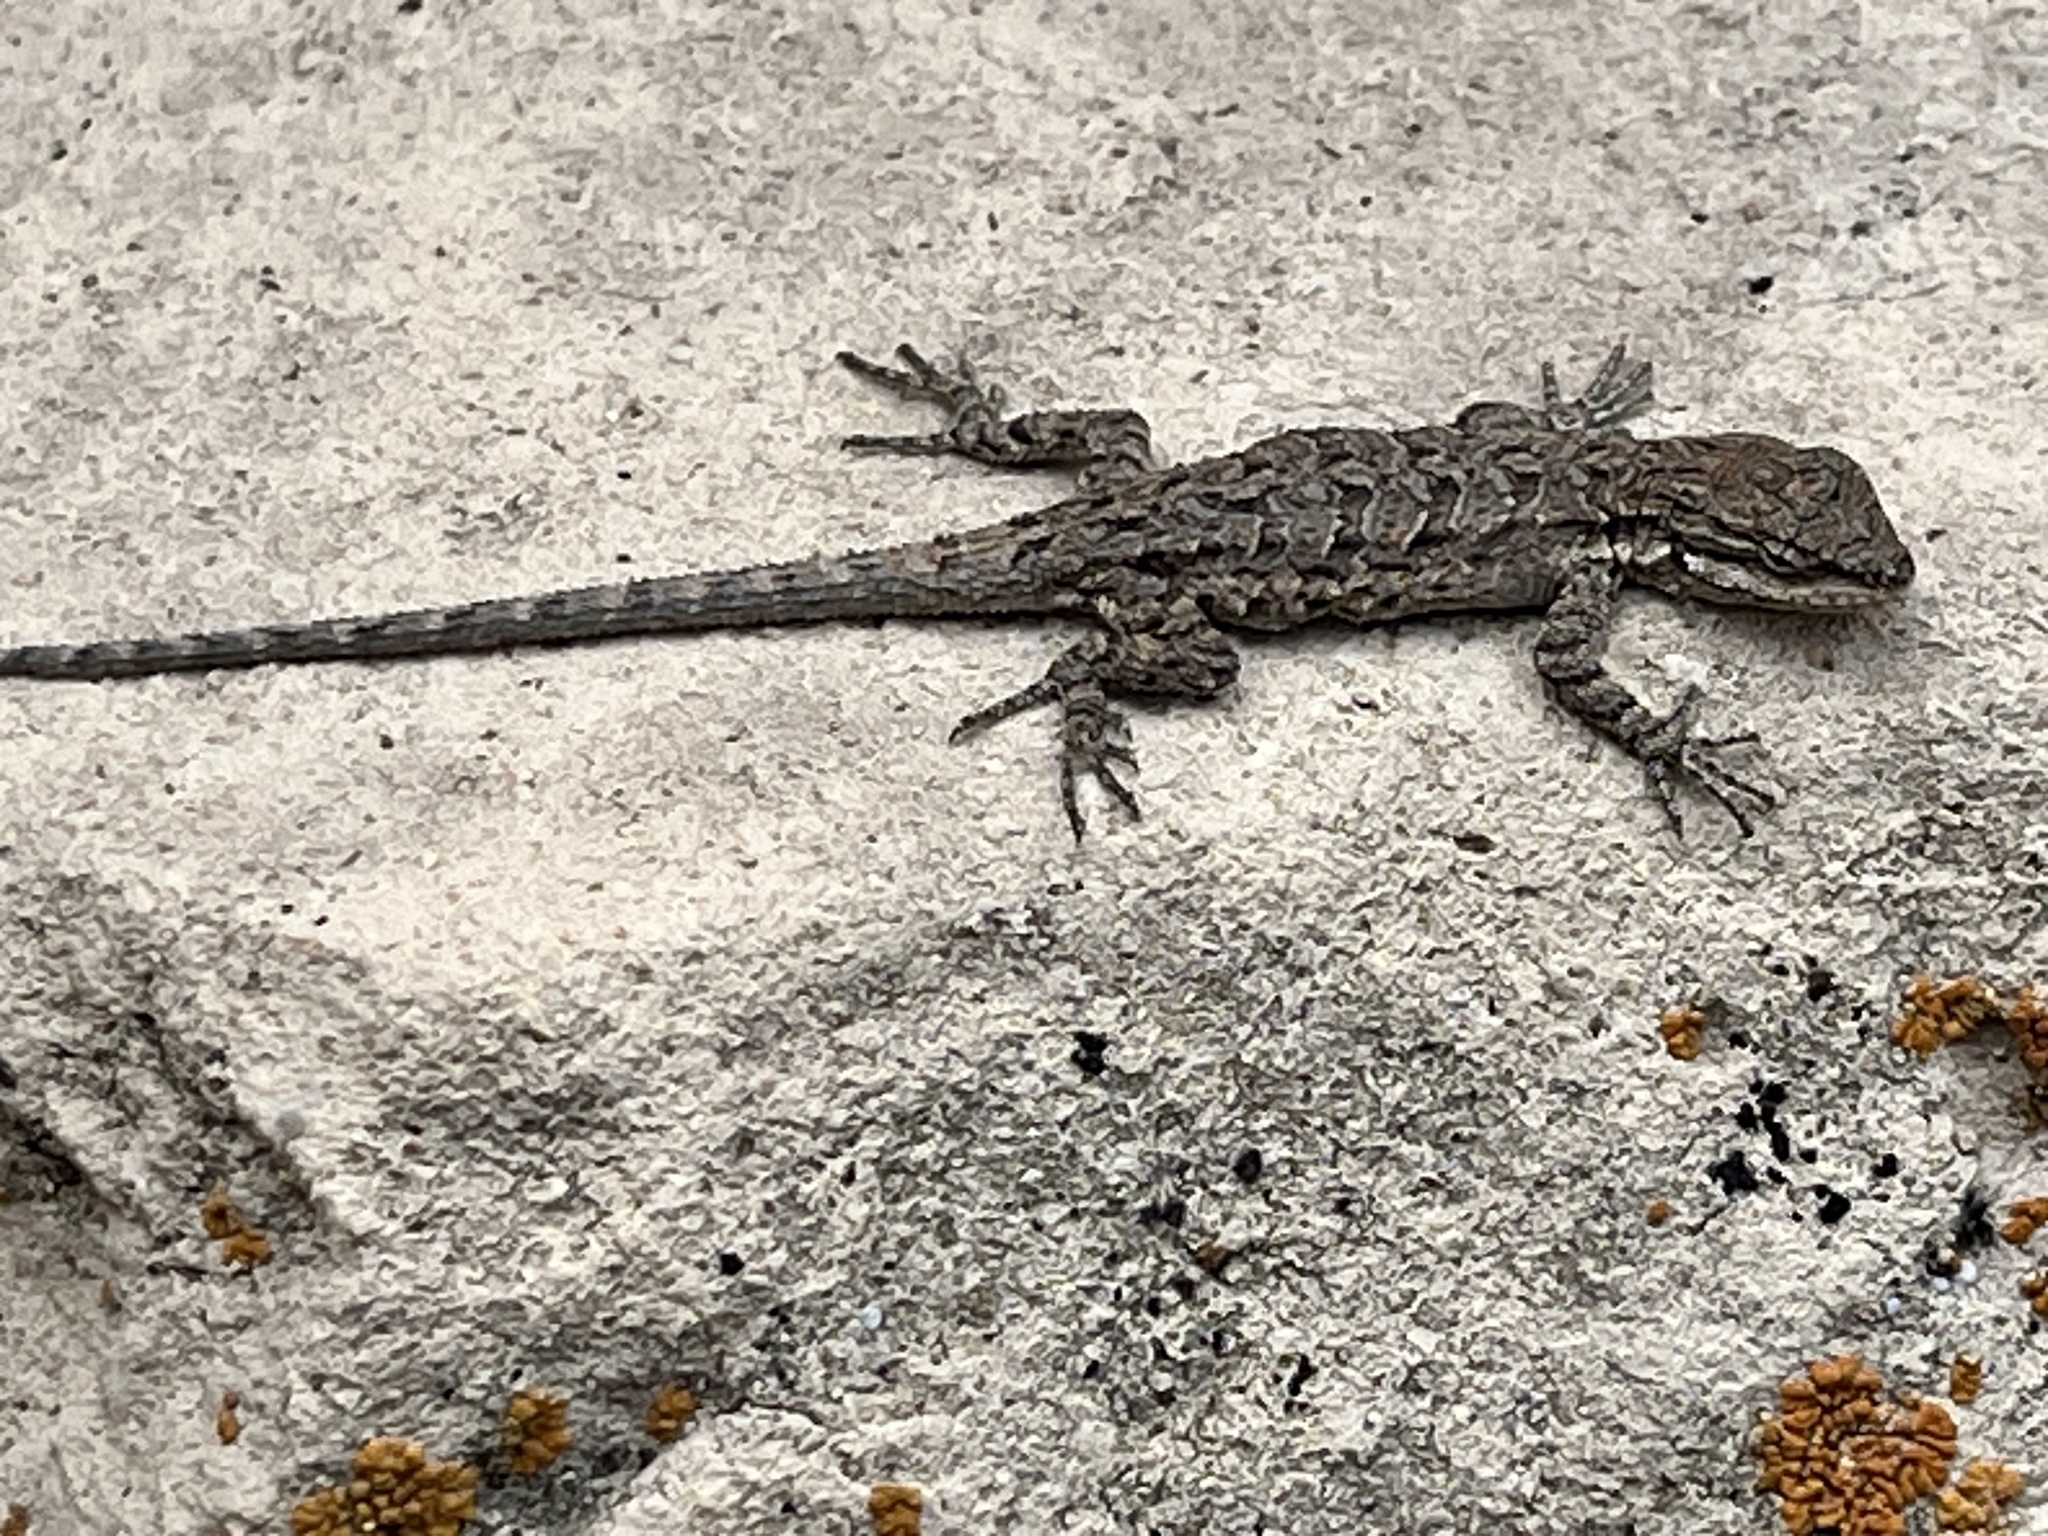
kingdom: Animalia
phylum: Chordata
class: Squamata
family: Phrynosomatidae
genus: Urosaurus
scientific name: Urosaurus ornatus
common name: Ornate tree lizard
